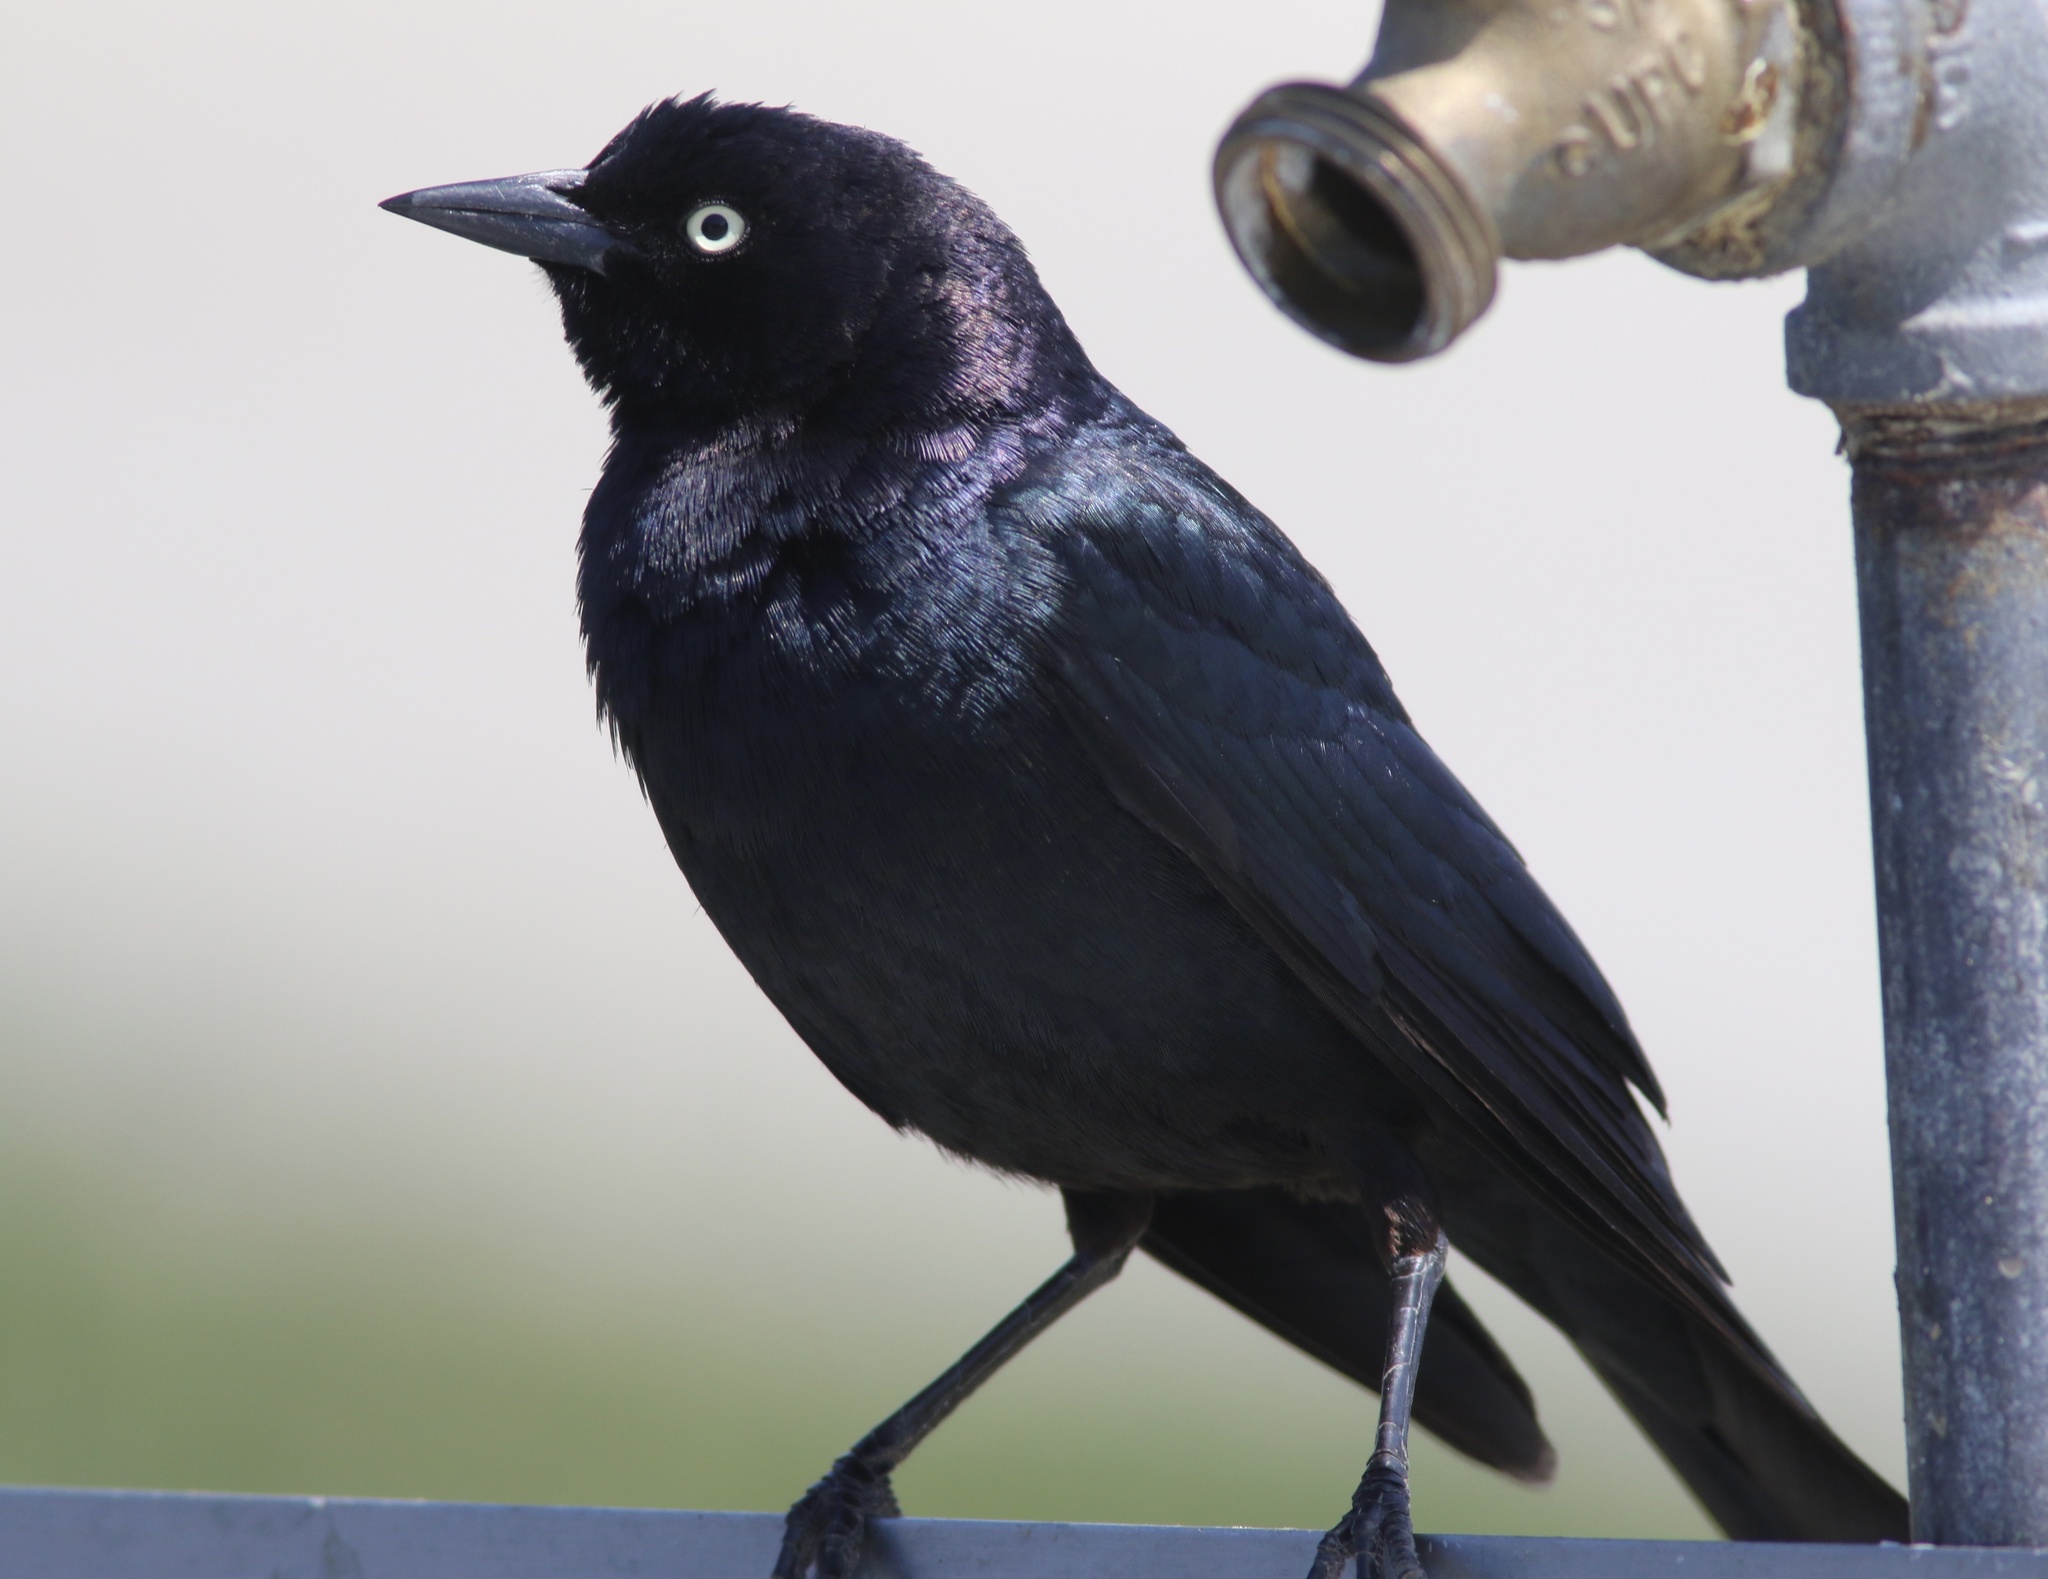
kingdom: Animalia
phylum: Chordata
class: Aves
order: Passeriformes
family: Icteridae
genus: Euphagus
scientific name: Euphagus cyanocephalus
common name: Brewer's blackbird
